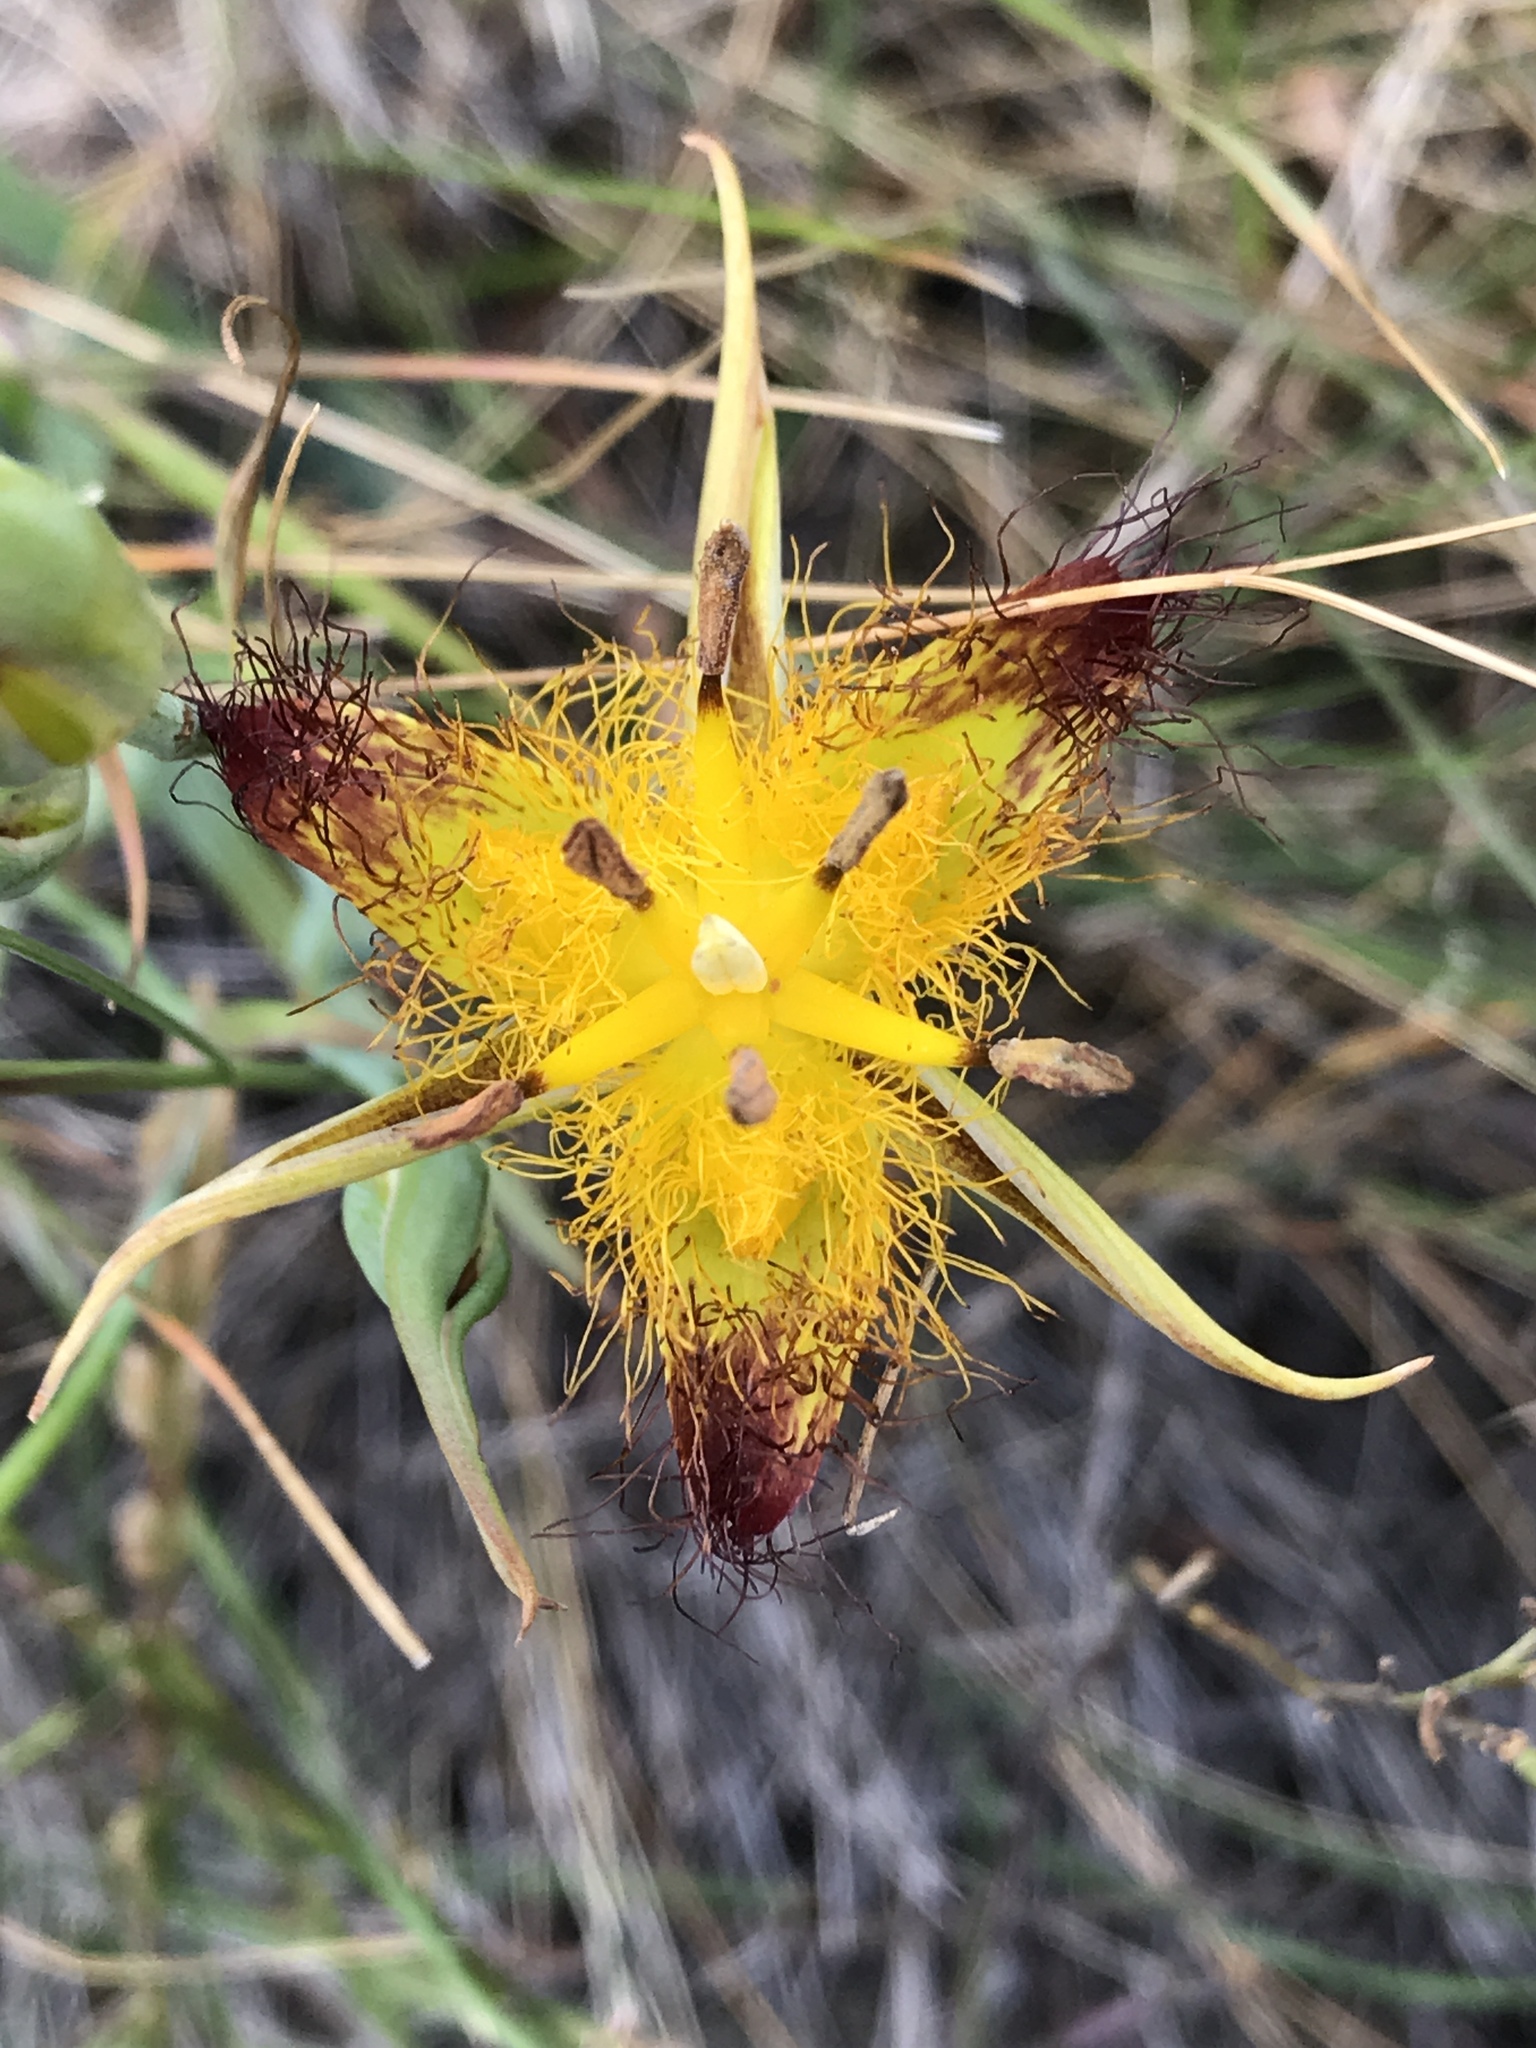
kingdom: Plantae
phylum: Tracheophyta
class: Liliopsida
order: Liliales
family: Liliaceae
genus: Calochortus
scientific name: Calochortus obispoensis
